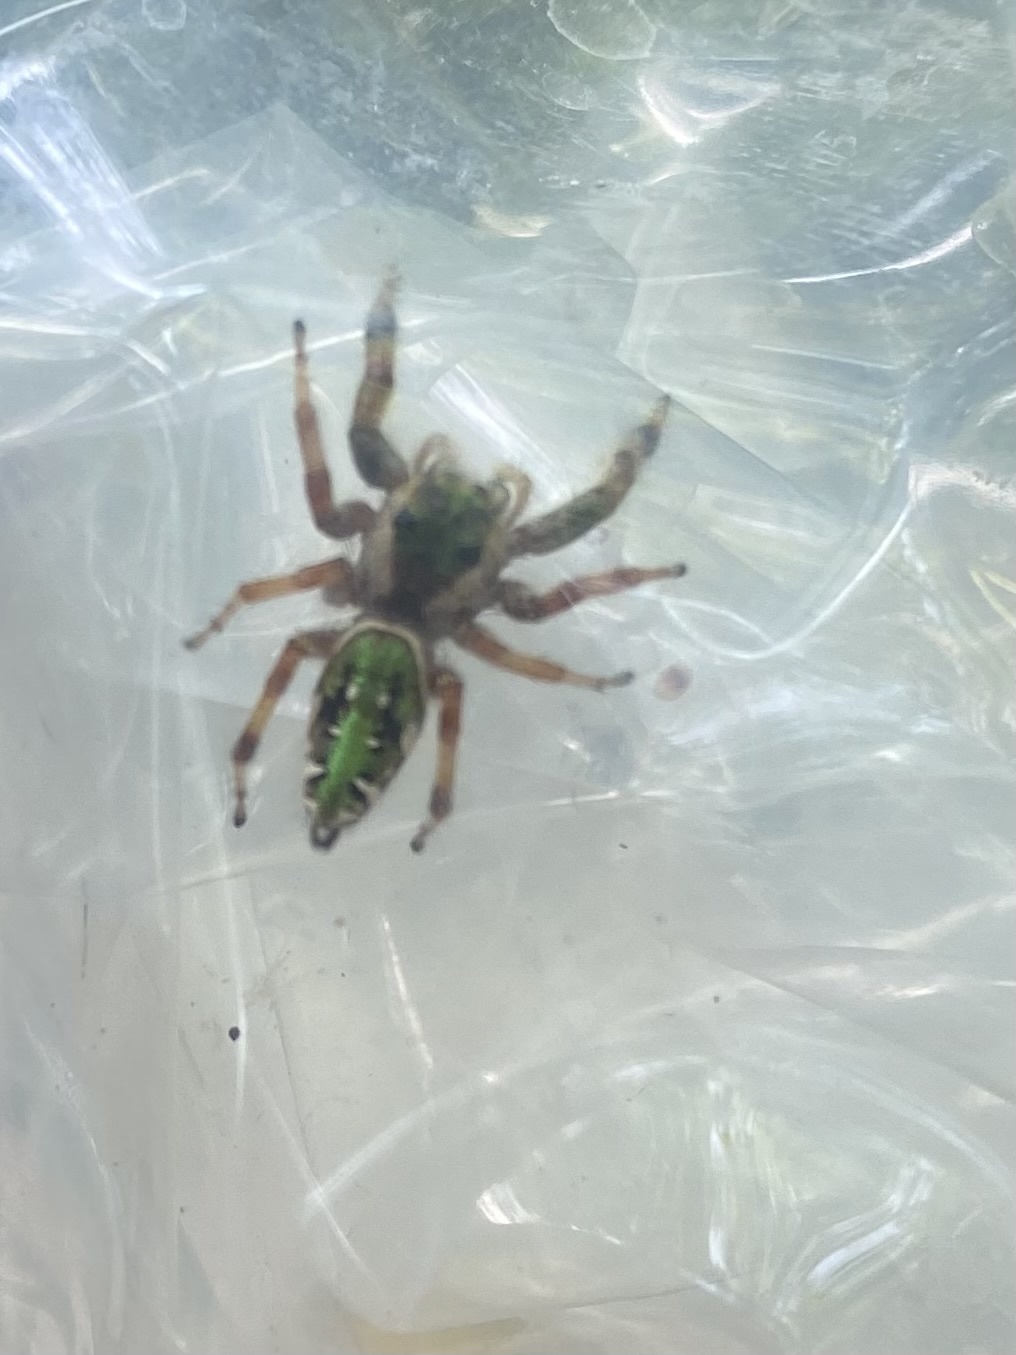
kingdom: Animalia
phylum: Arthropoda
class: Arachnida
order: Araneae
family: Salticidae
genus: Paraphidippus
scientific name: Paraphidippus aurantius
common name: Jumping spiders
